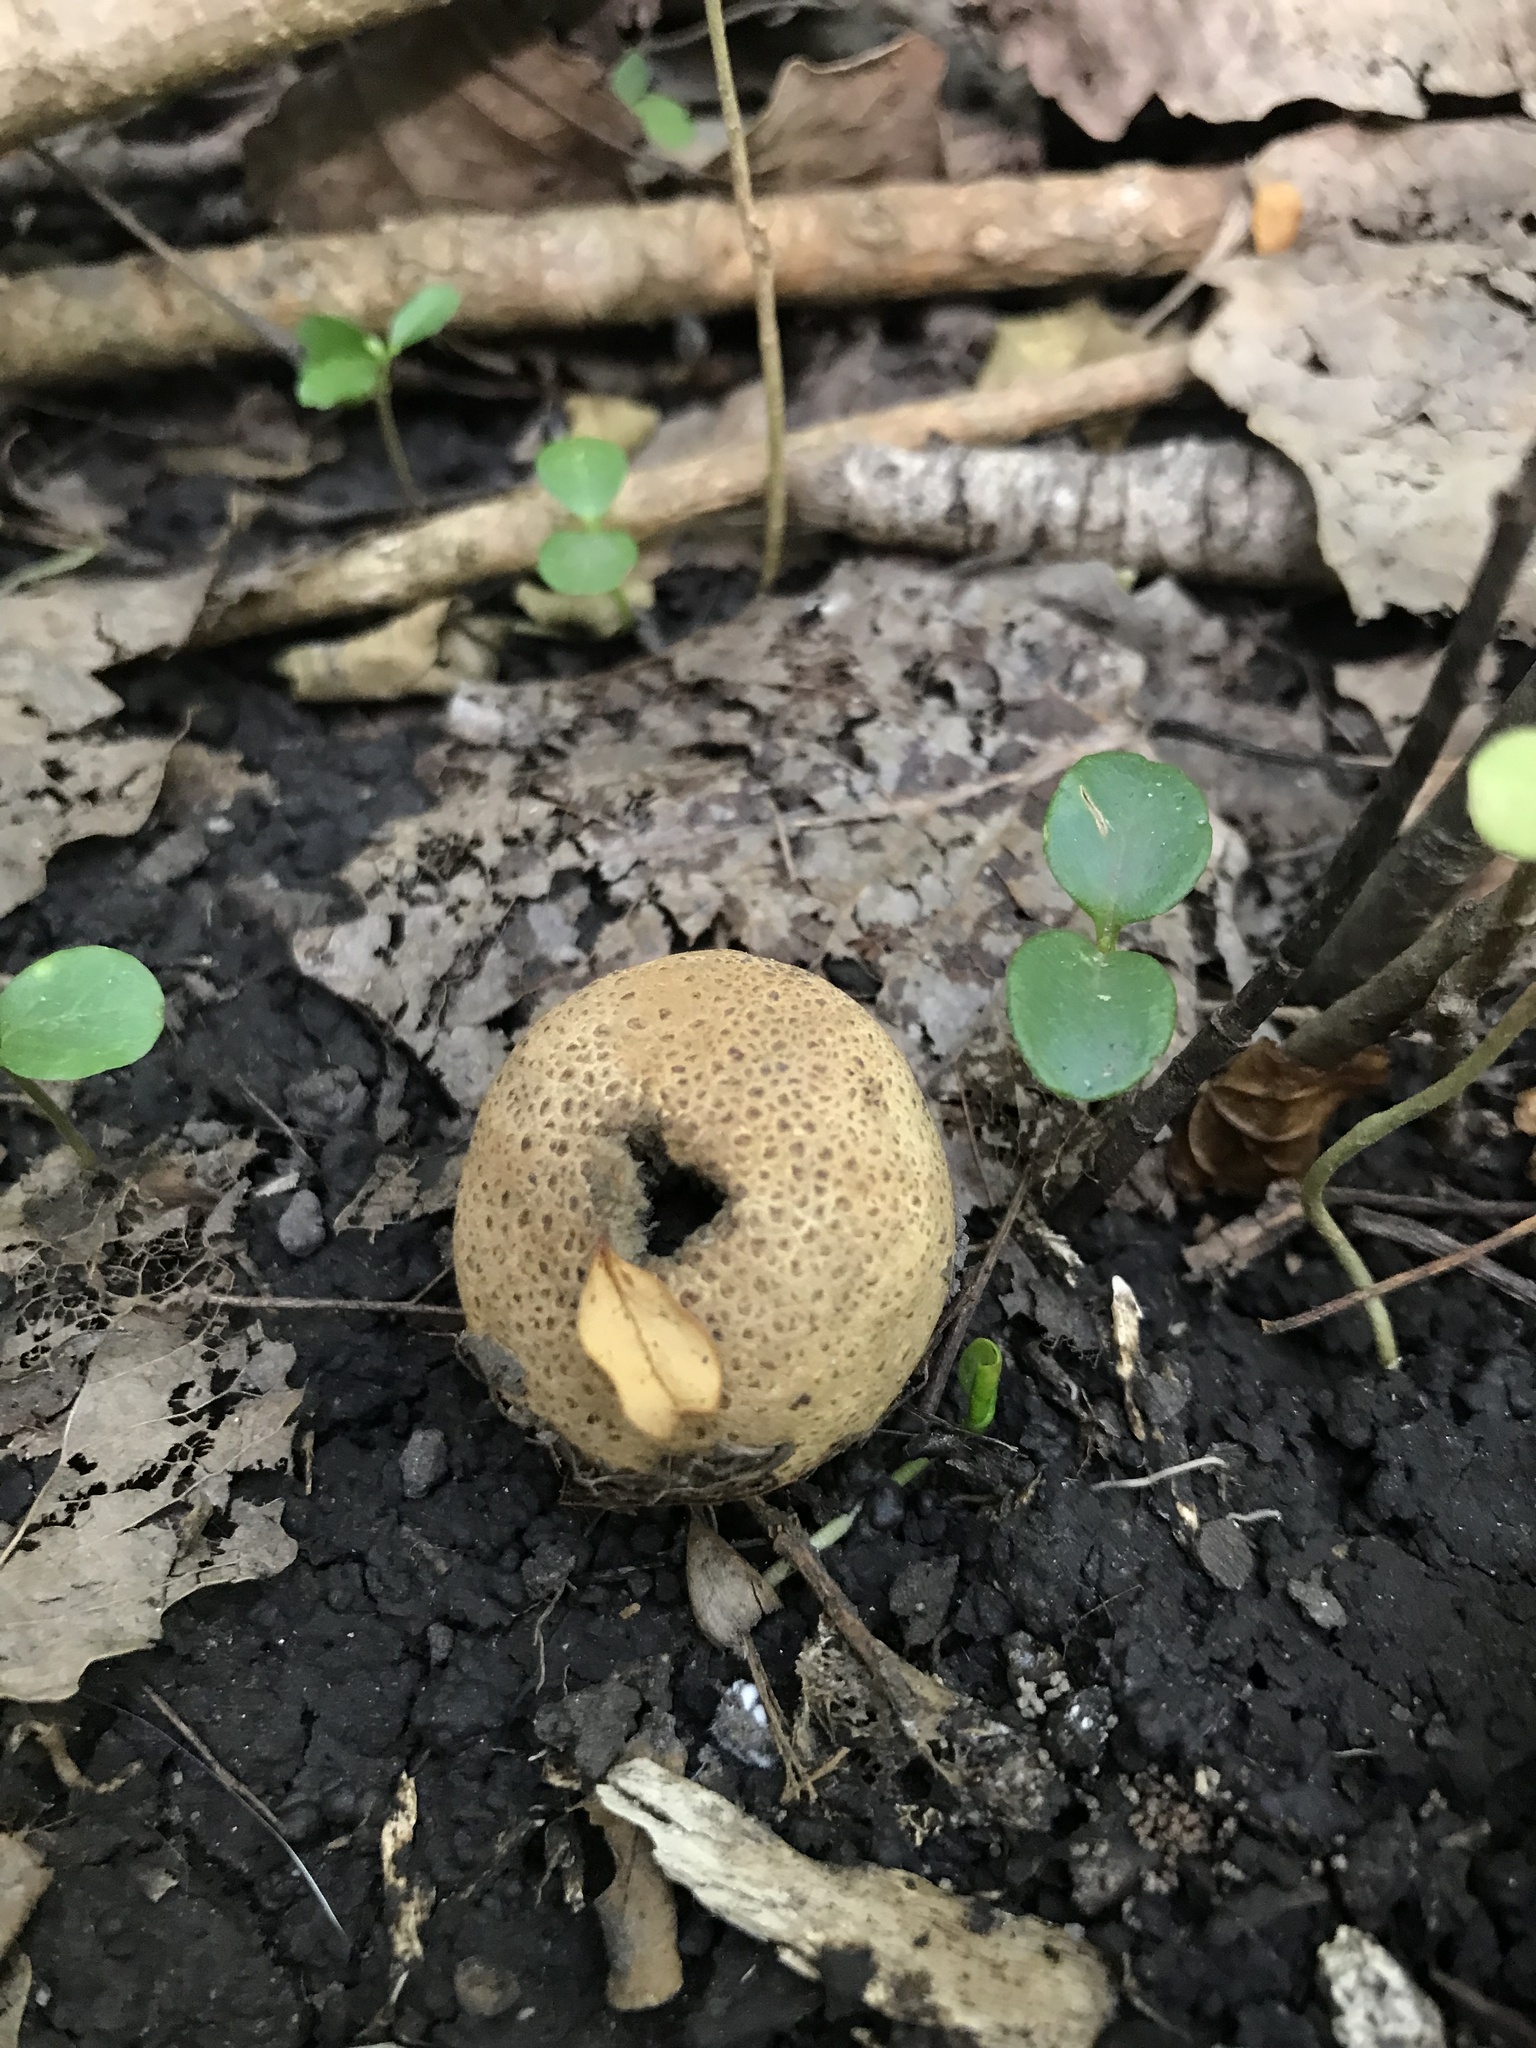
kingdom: Fungi
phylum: Basidiomycota
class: Agaricomycetes
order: Boletales
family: Sclerodermataceae
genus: Scleroderma
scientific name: Scleroderma areolatum
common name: Leopard earthball
